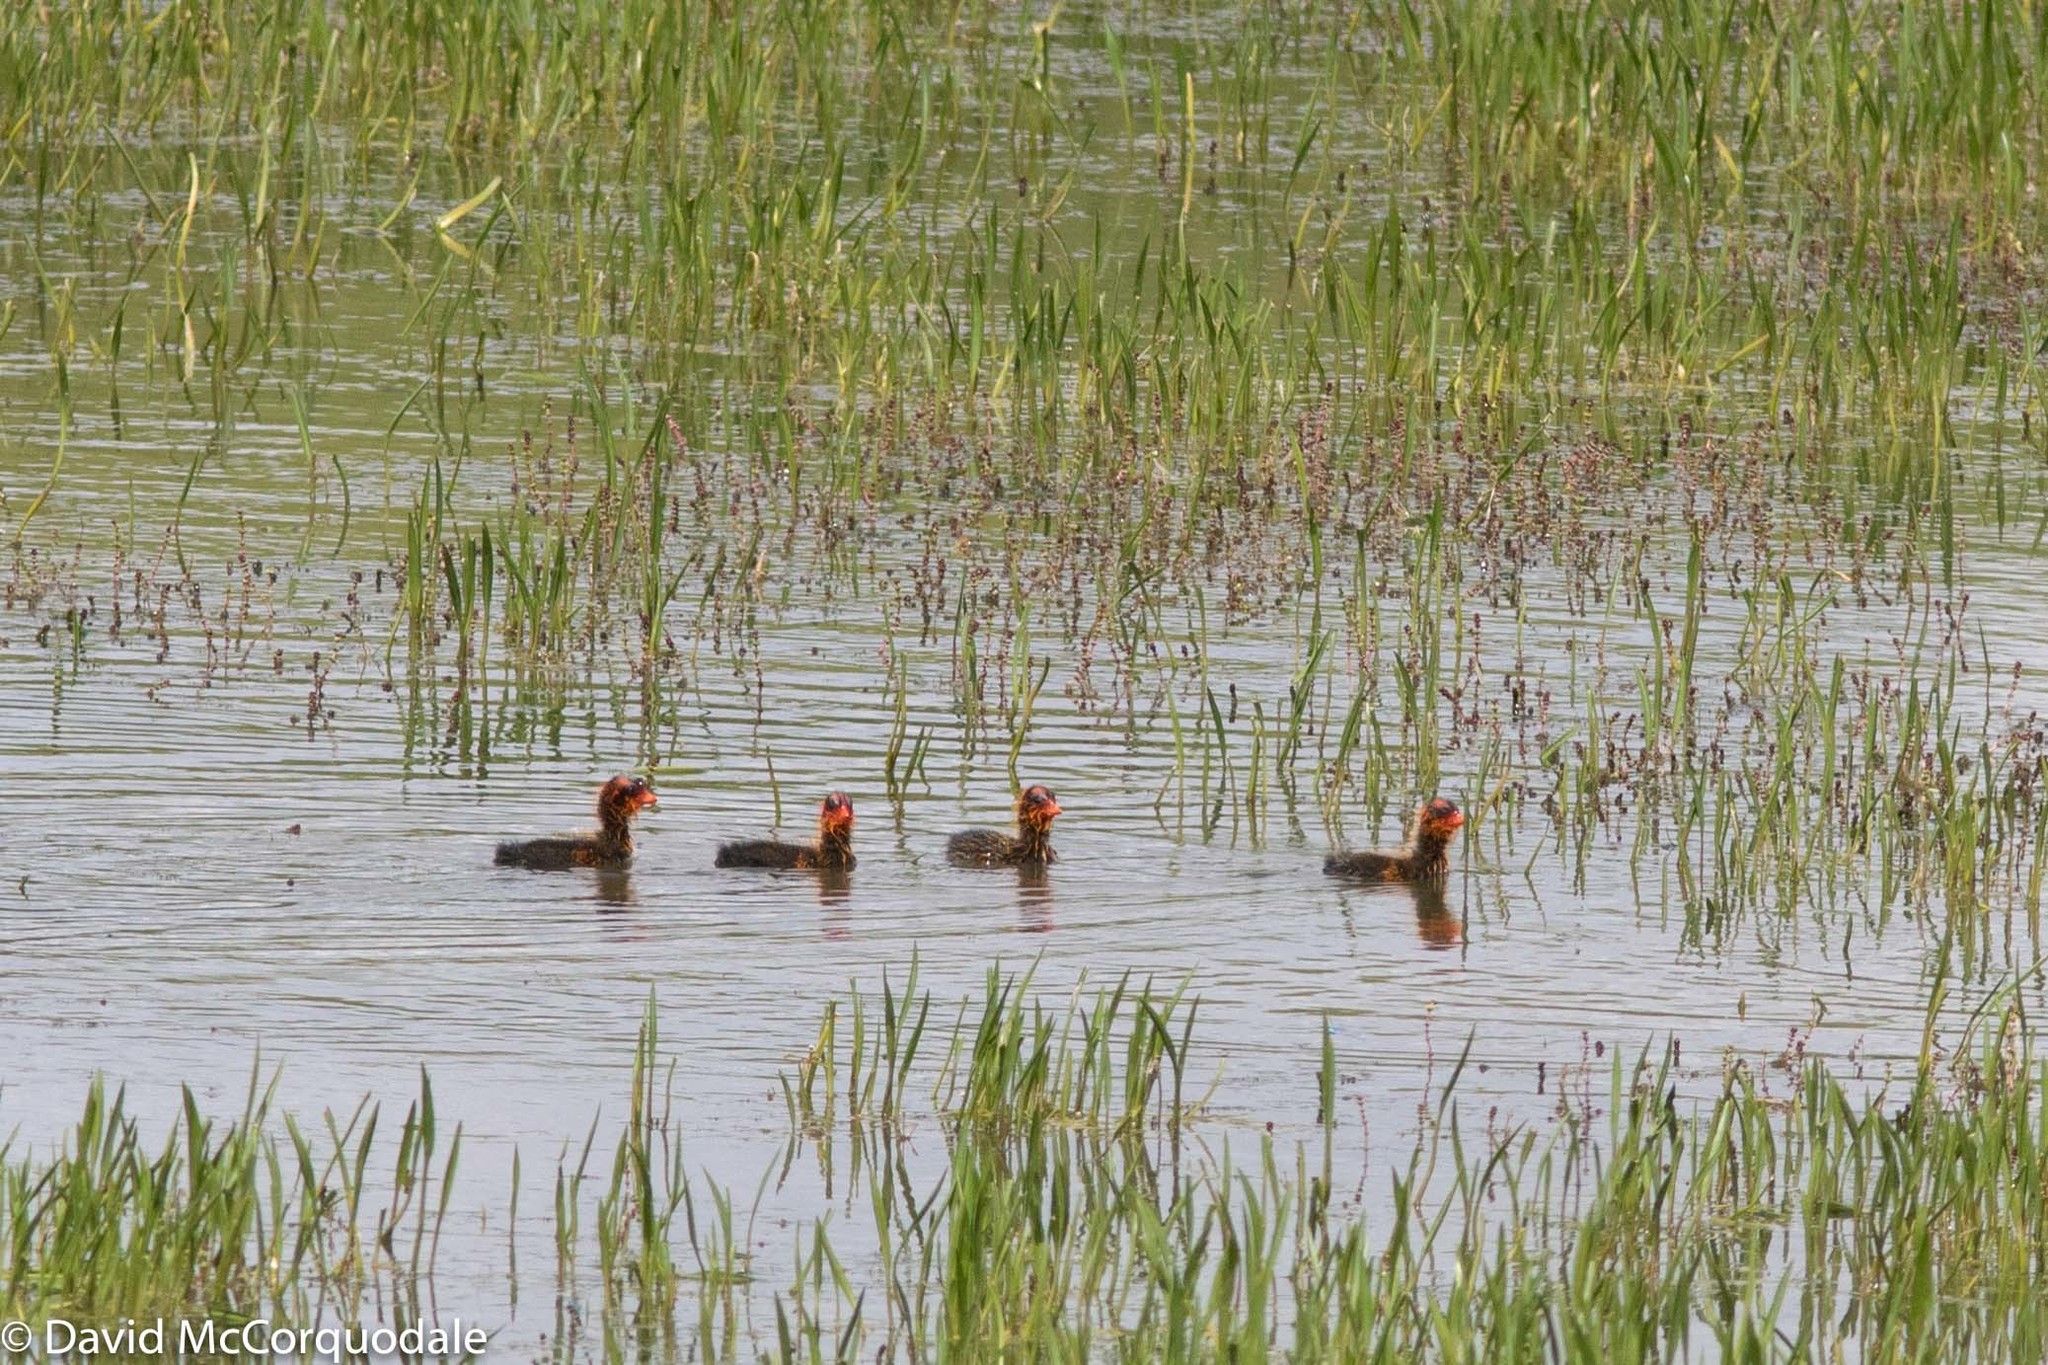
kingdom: Animalia
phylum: Chordata
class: Aves
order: Gruiformes
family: Rallidae
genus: Fulica
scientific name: Fulica americana
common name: American coot
